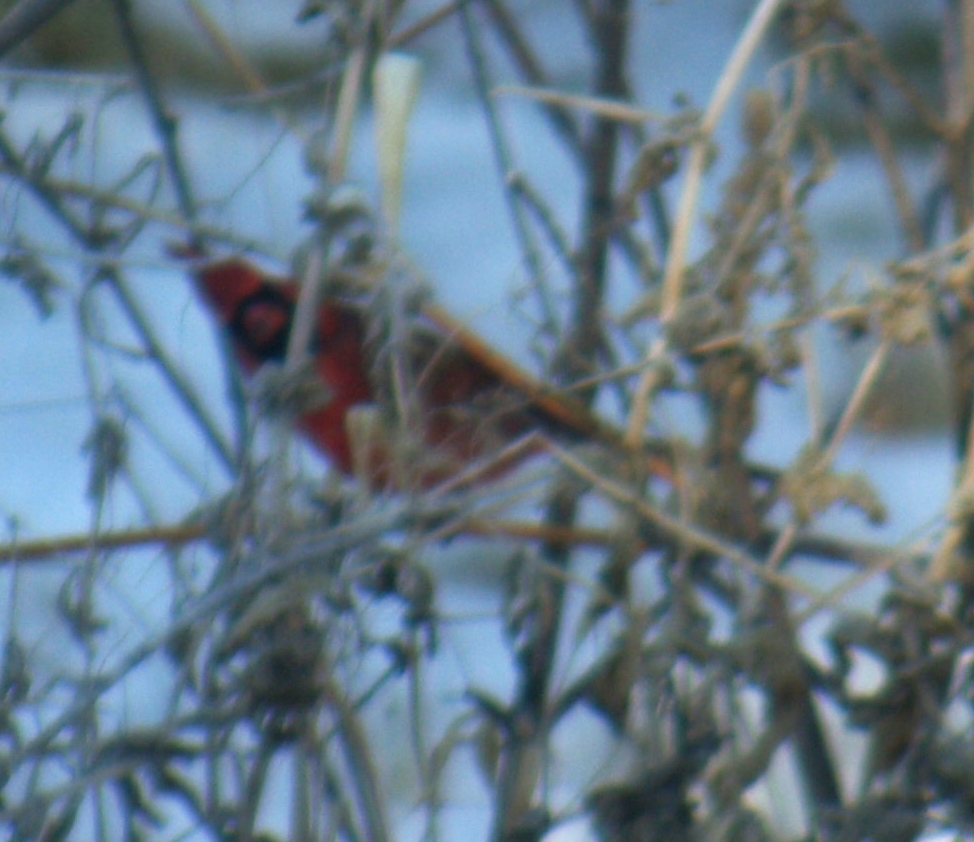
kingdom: Animalia
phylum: Chordata
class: Aves
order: Passeriformes
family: Cardinalidae
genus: Cardinalis
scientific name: Cardinalis cardinalis
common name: Northern cardinal
